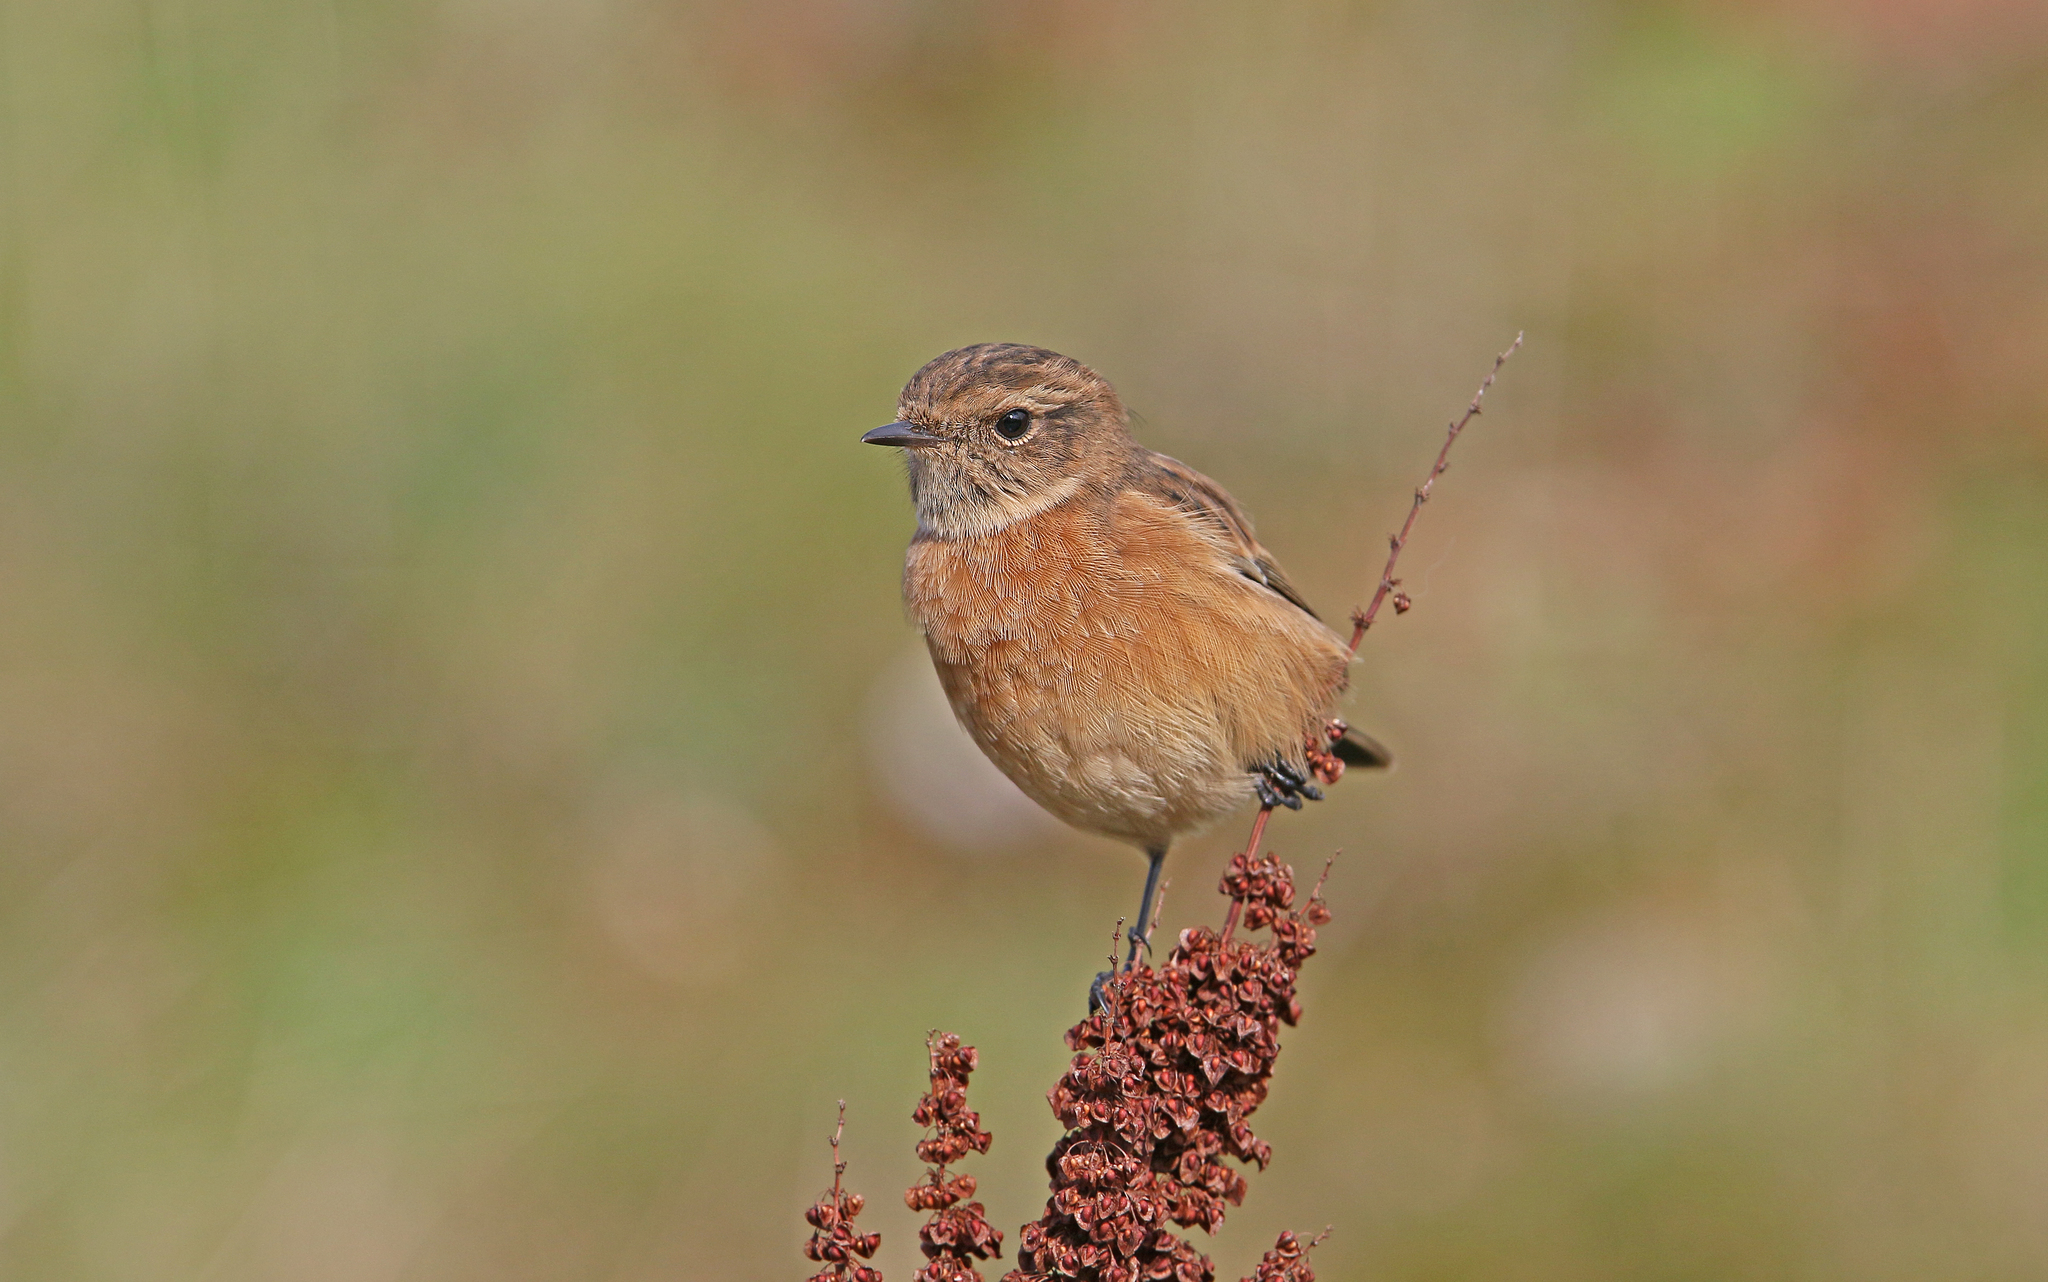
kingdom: Animalia
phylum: Chordata
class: Aves
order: Passeriformes
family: Muscicapidae
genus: Saxicola
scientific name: Saxicola rubicola
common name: European stonechat
